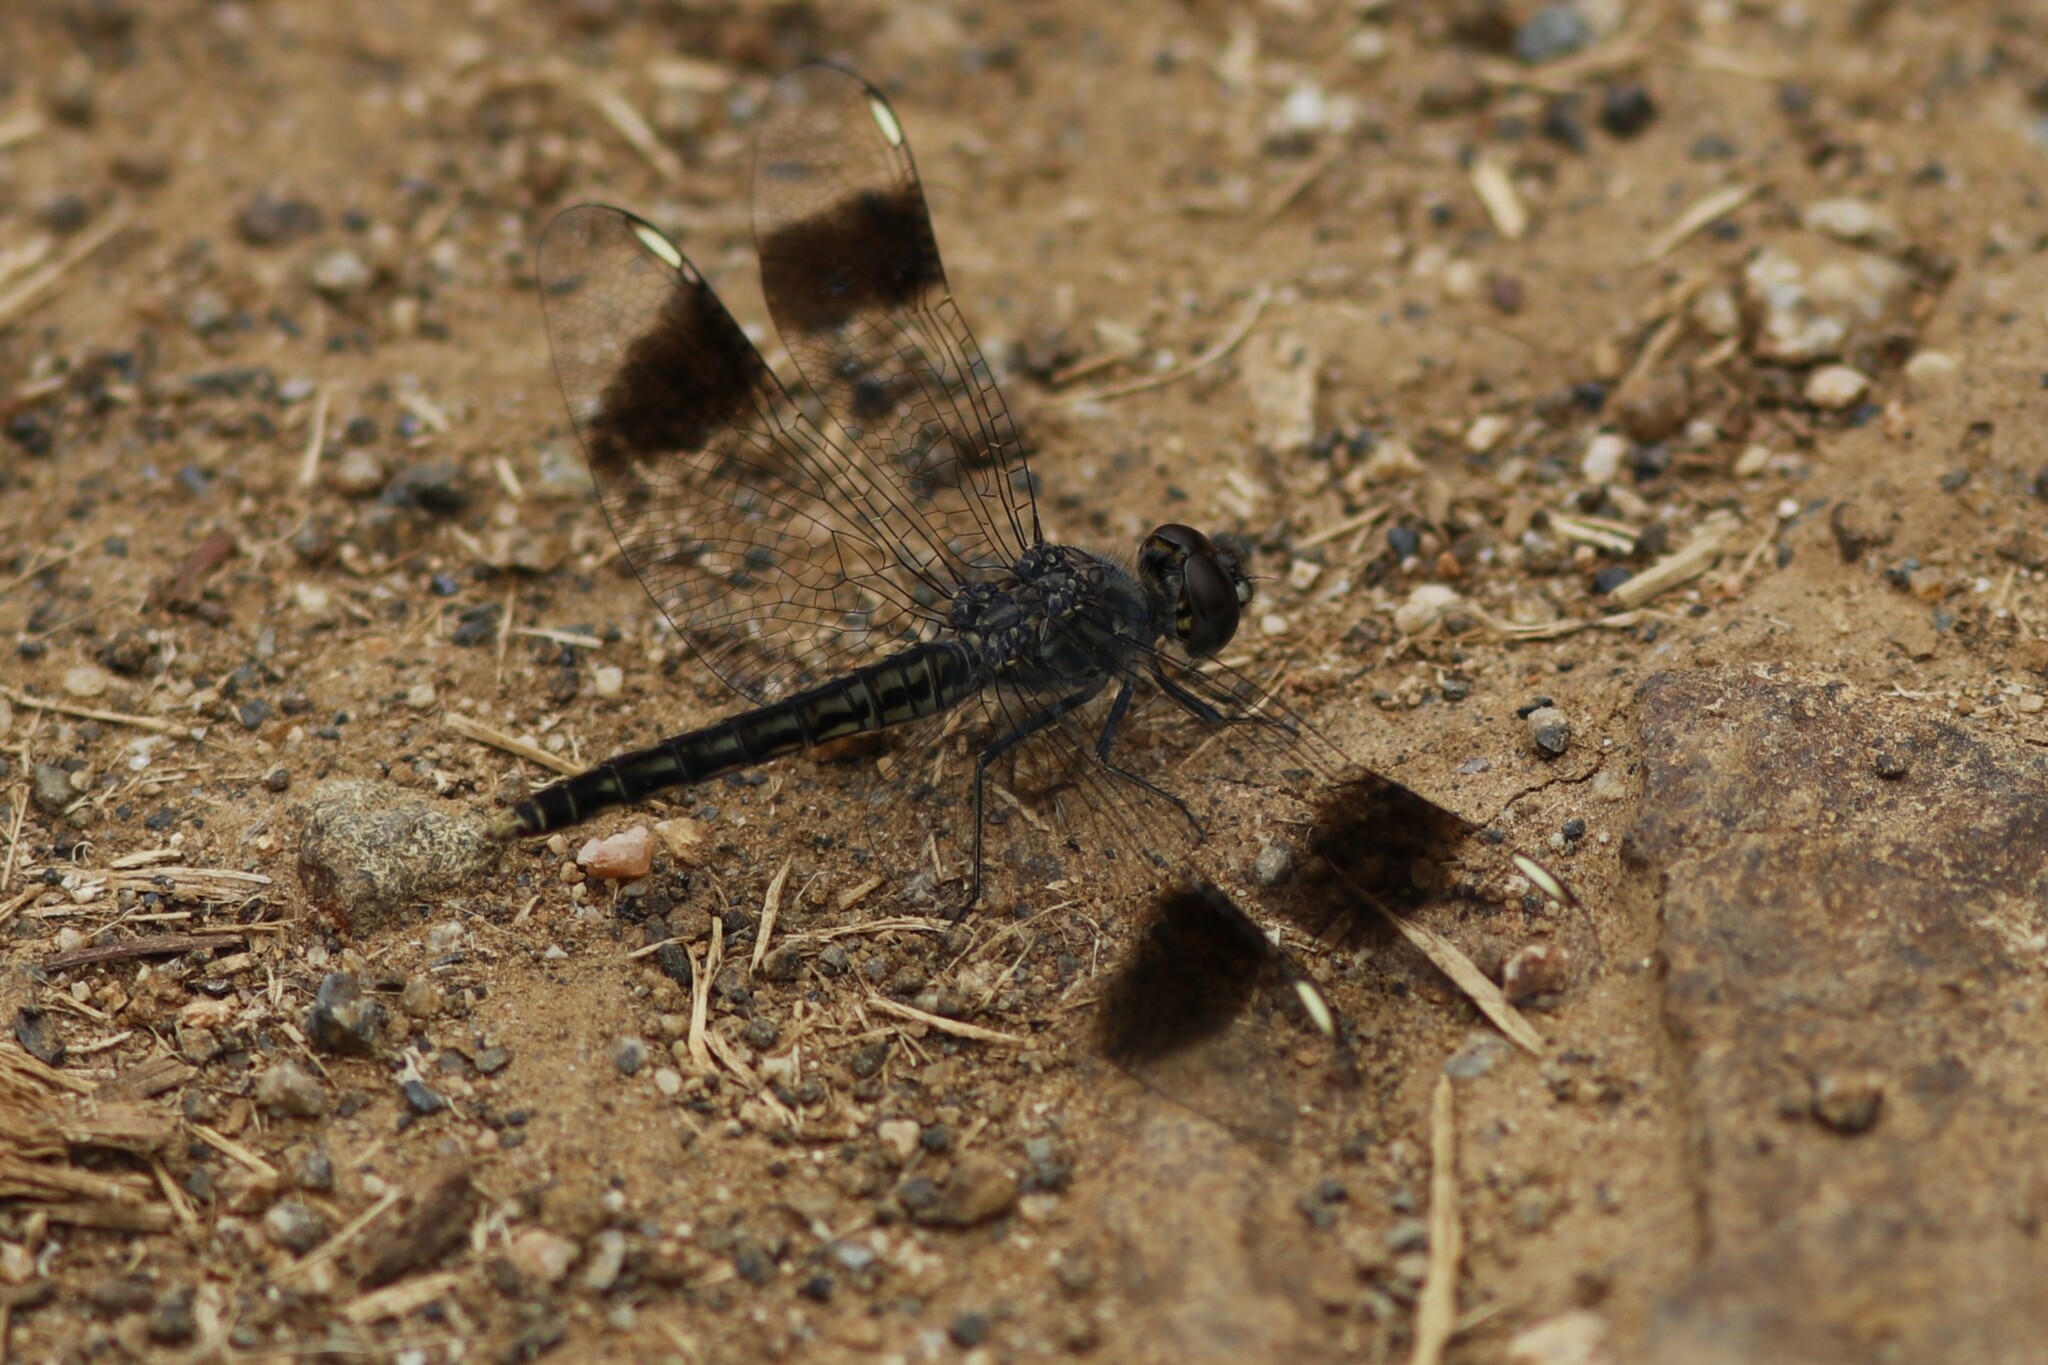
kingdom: Animalia
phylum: Arthropoda
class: Insecta
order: Odonata
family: Libellulidae
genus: Brachythemis
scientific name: Brachythemis leucosticta
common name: Banded groundling
